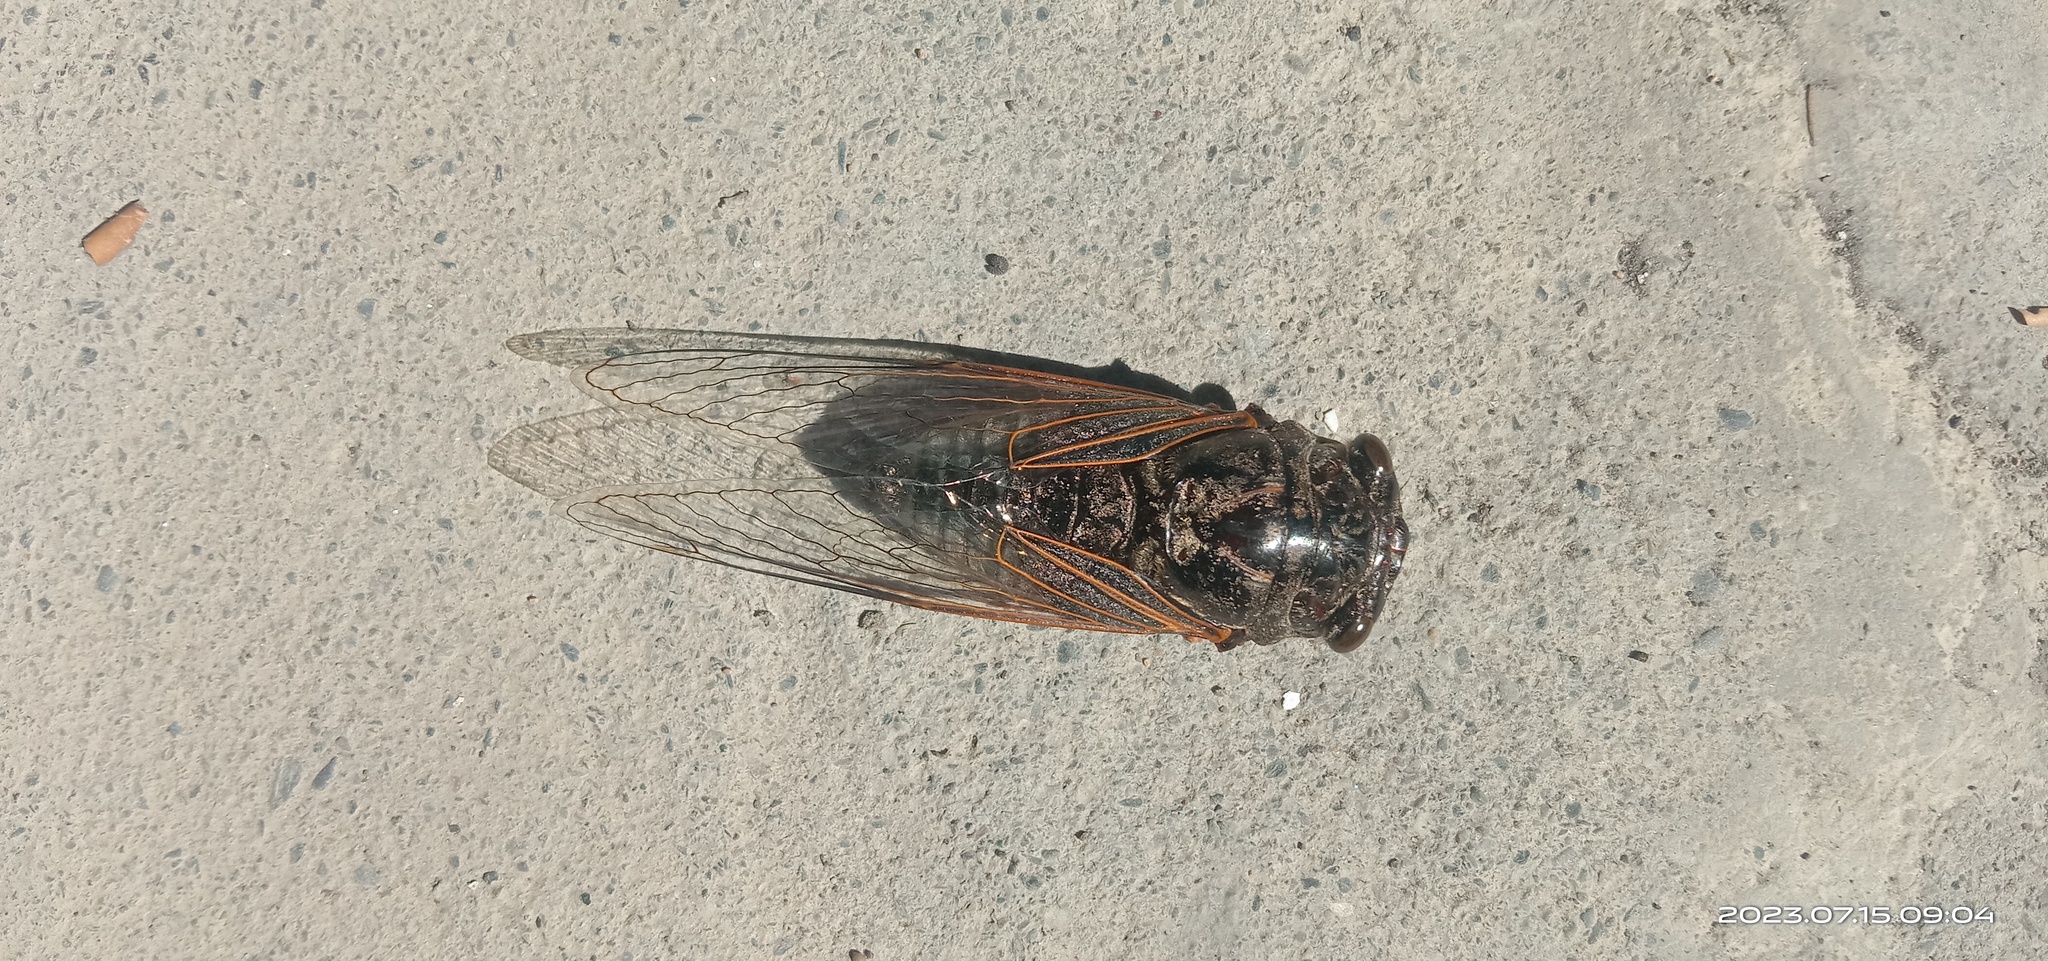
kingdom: Animalia
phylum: Arthropoda
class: Insecta
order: Hemiptera
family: Cicadidae
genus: Cryptotympana
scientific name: Cryptotympana atrata
